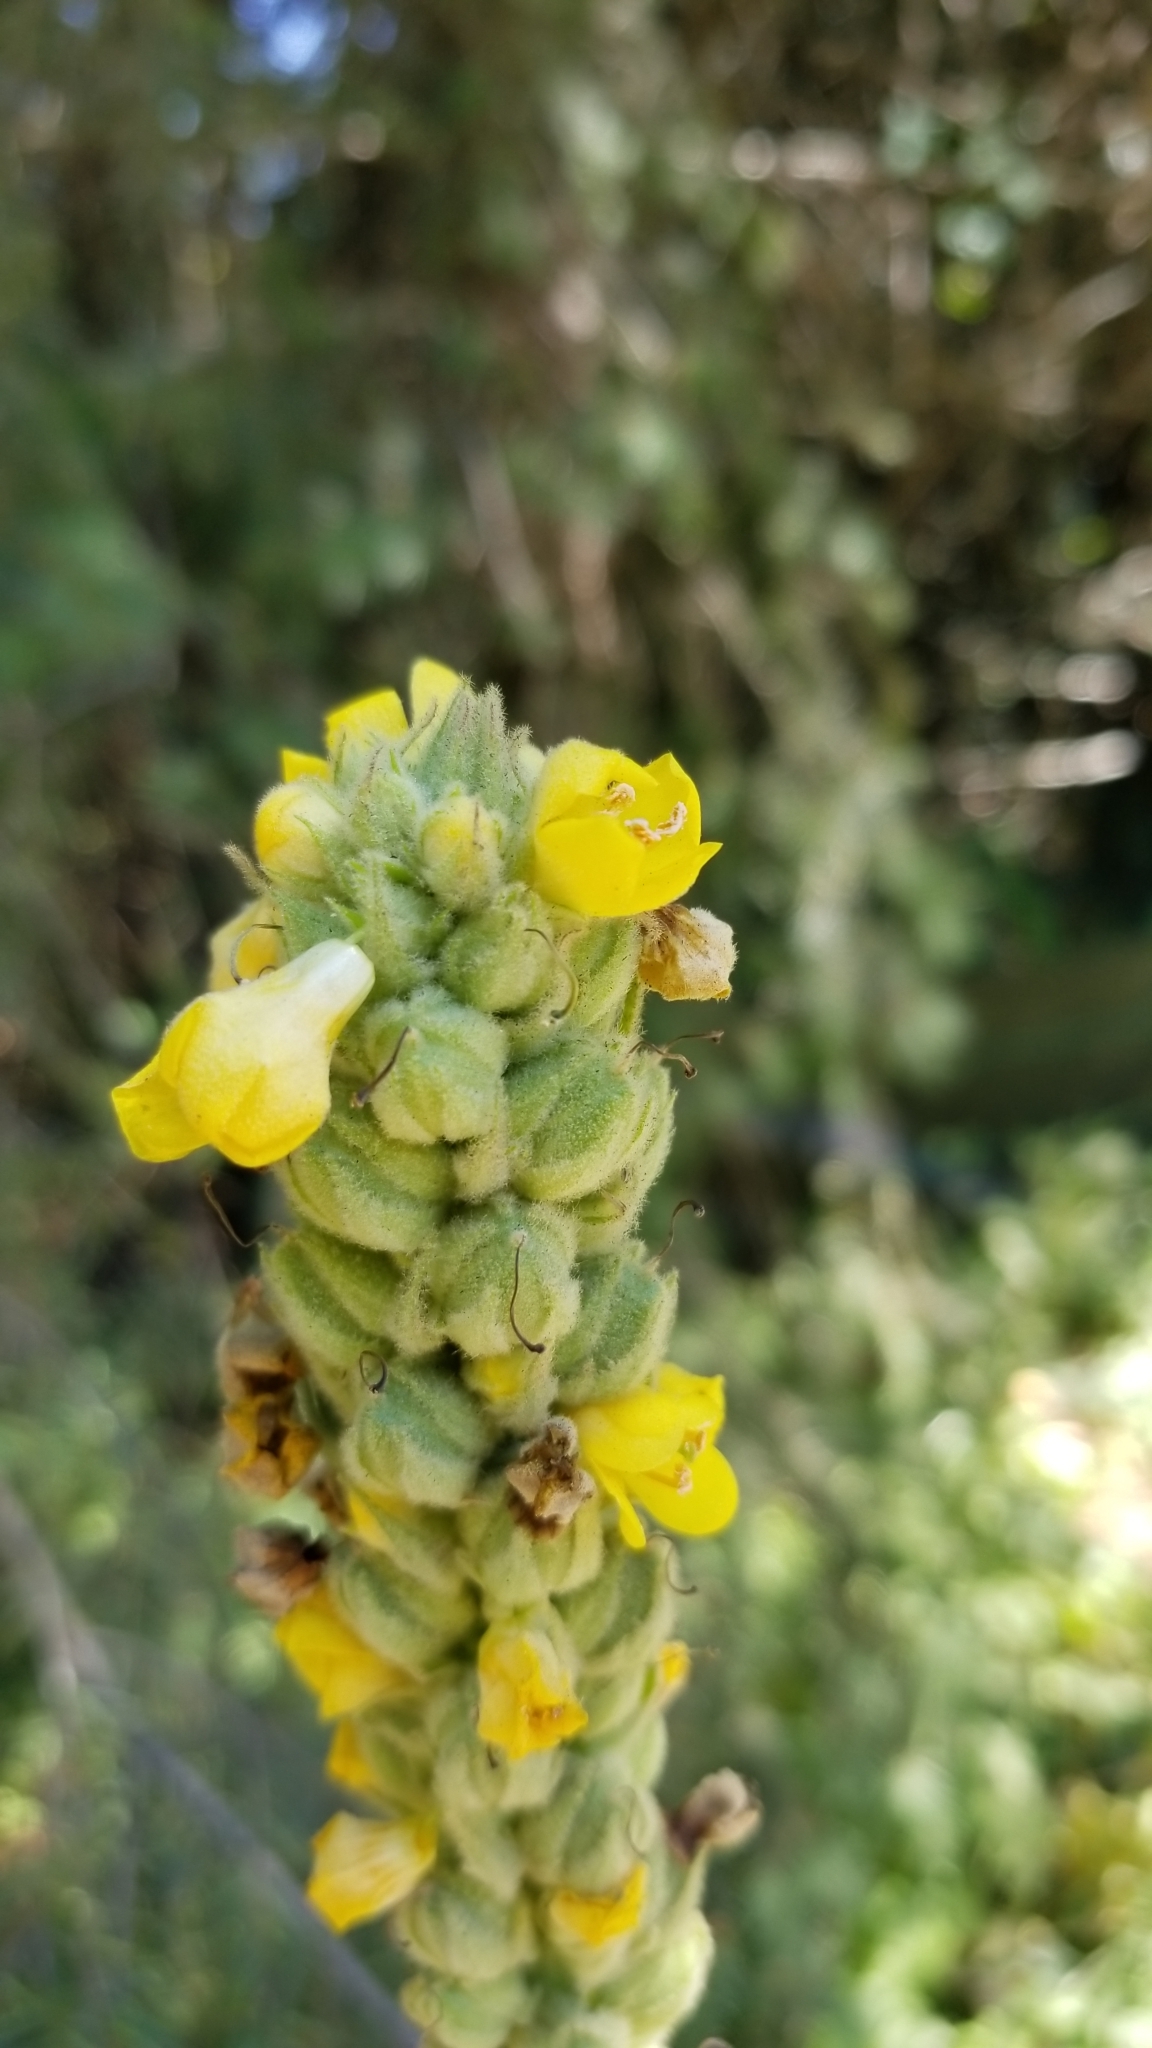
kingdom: Plantae
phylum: Tracheophyta
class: Magnoliopsida
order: Lamiales
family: Scrophulariaceae
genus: Verbascum
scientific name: Verbascum thapsus
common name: Common mullein
